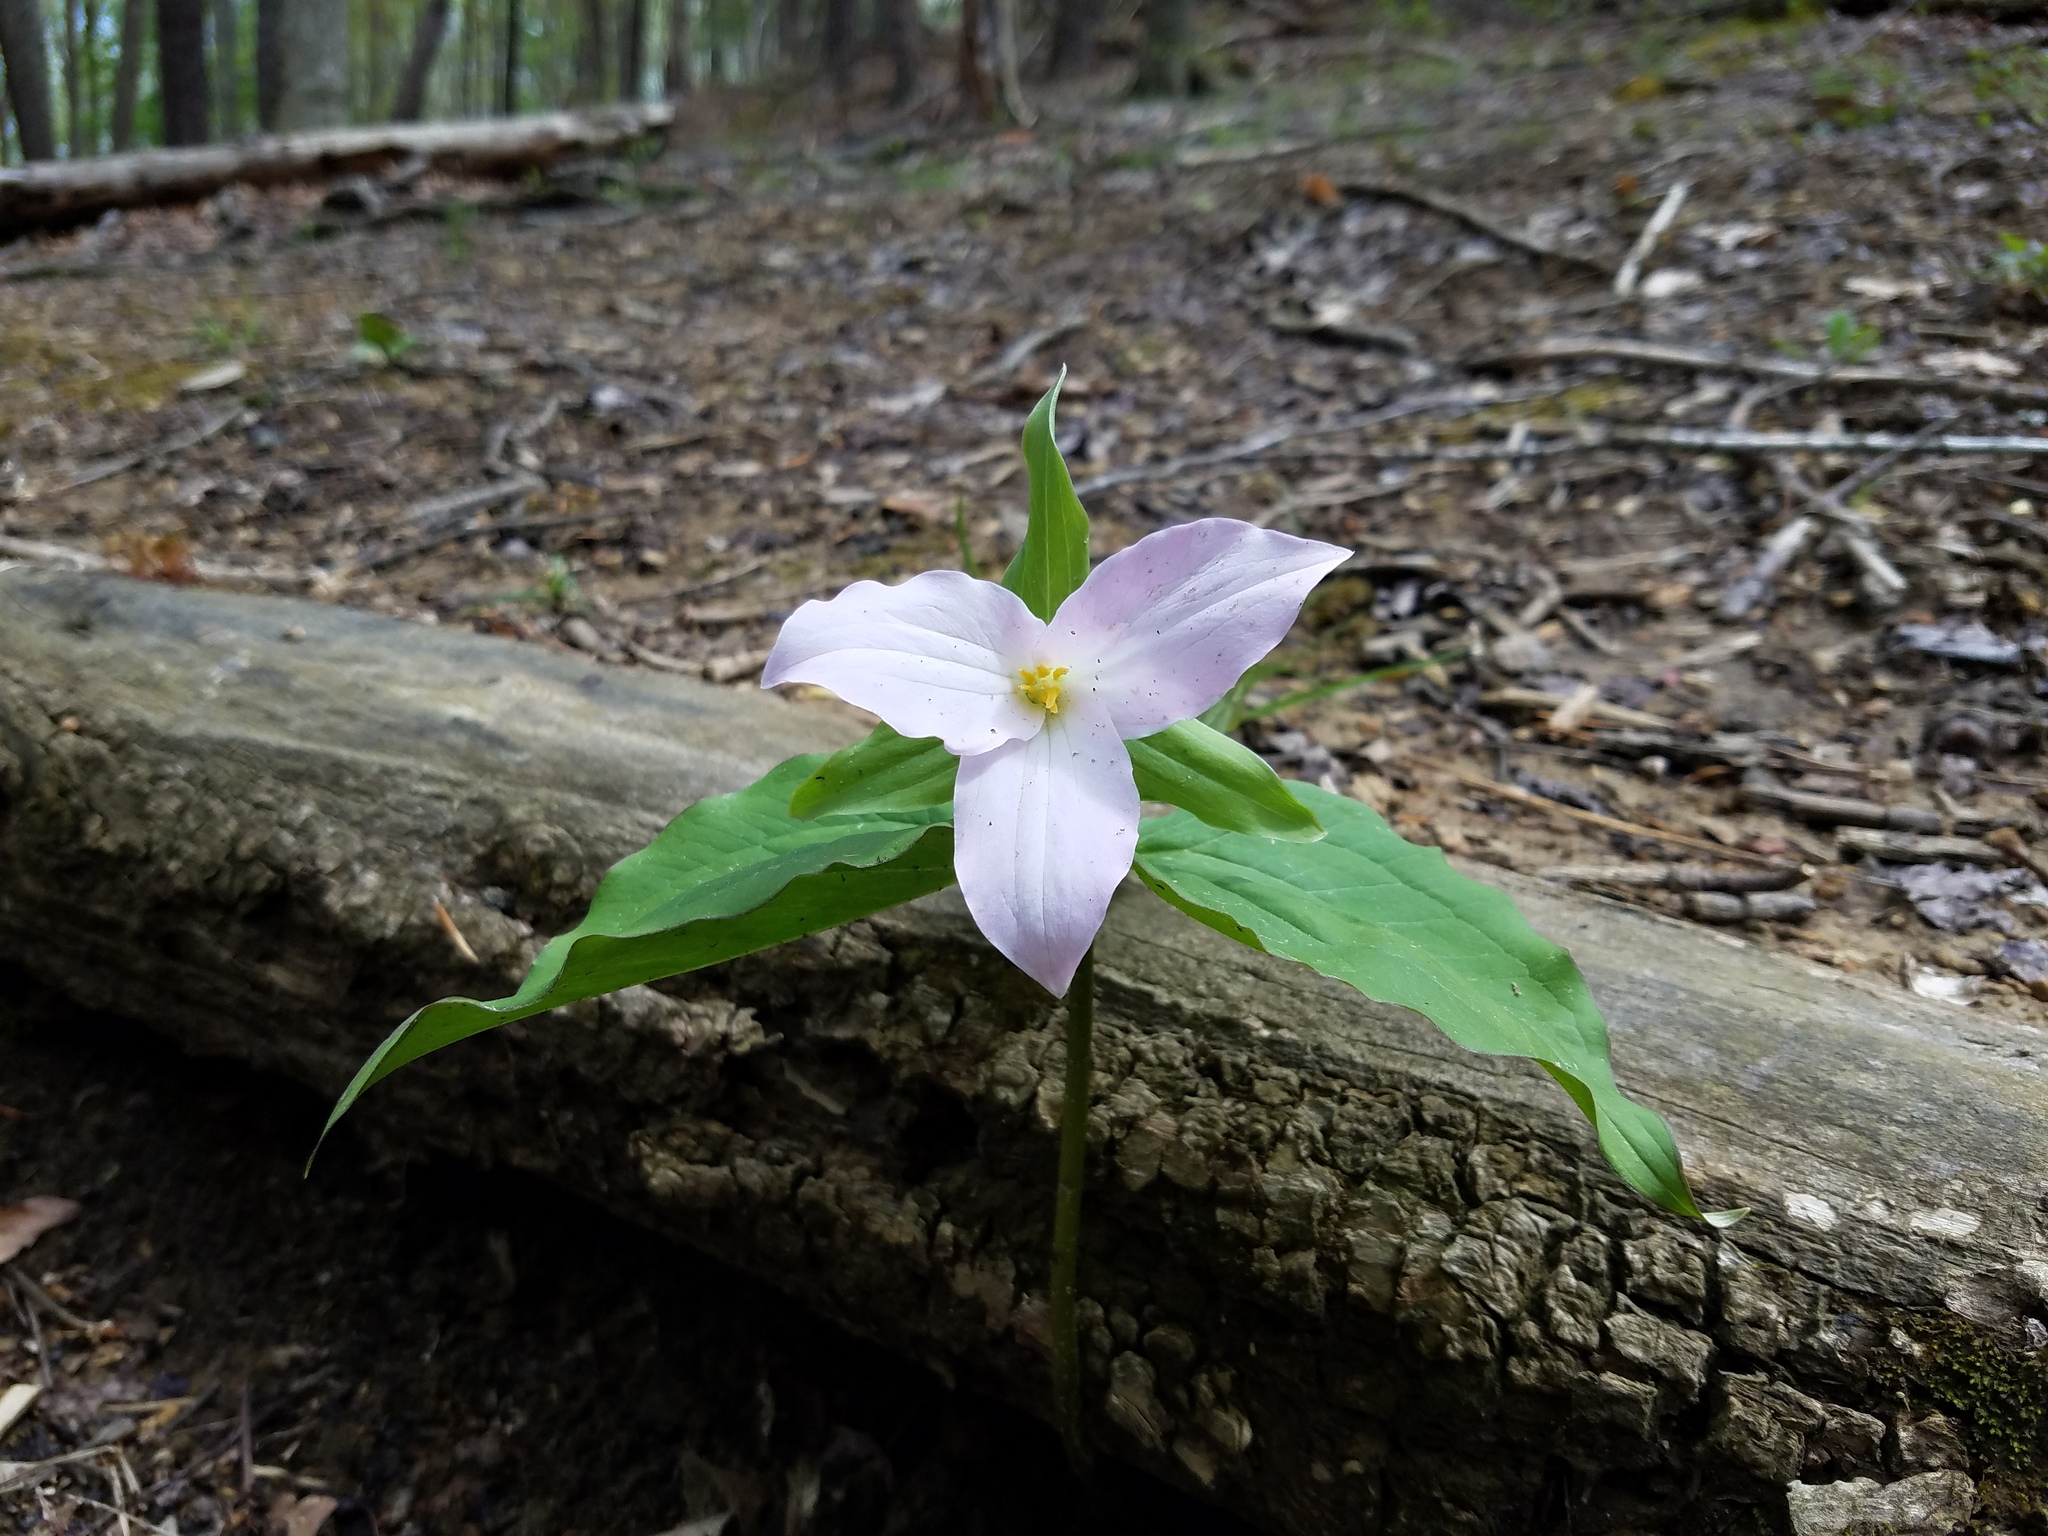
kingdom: Plantae
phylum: Tracheophyta
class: Liliopsida
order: Liliales
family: Melanthiaceae
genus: Trillium
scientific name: Trillium grandiflorum
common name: Great white trillium
